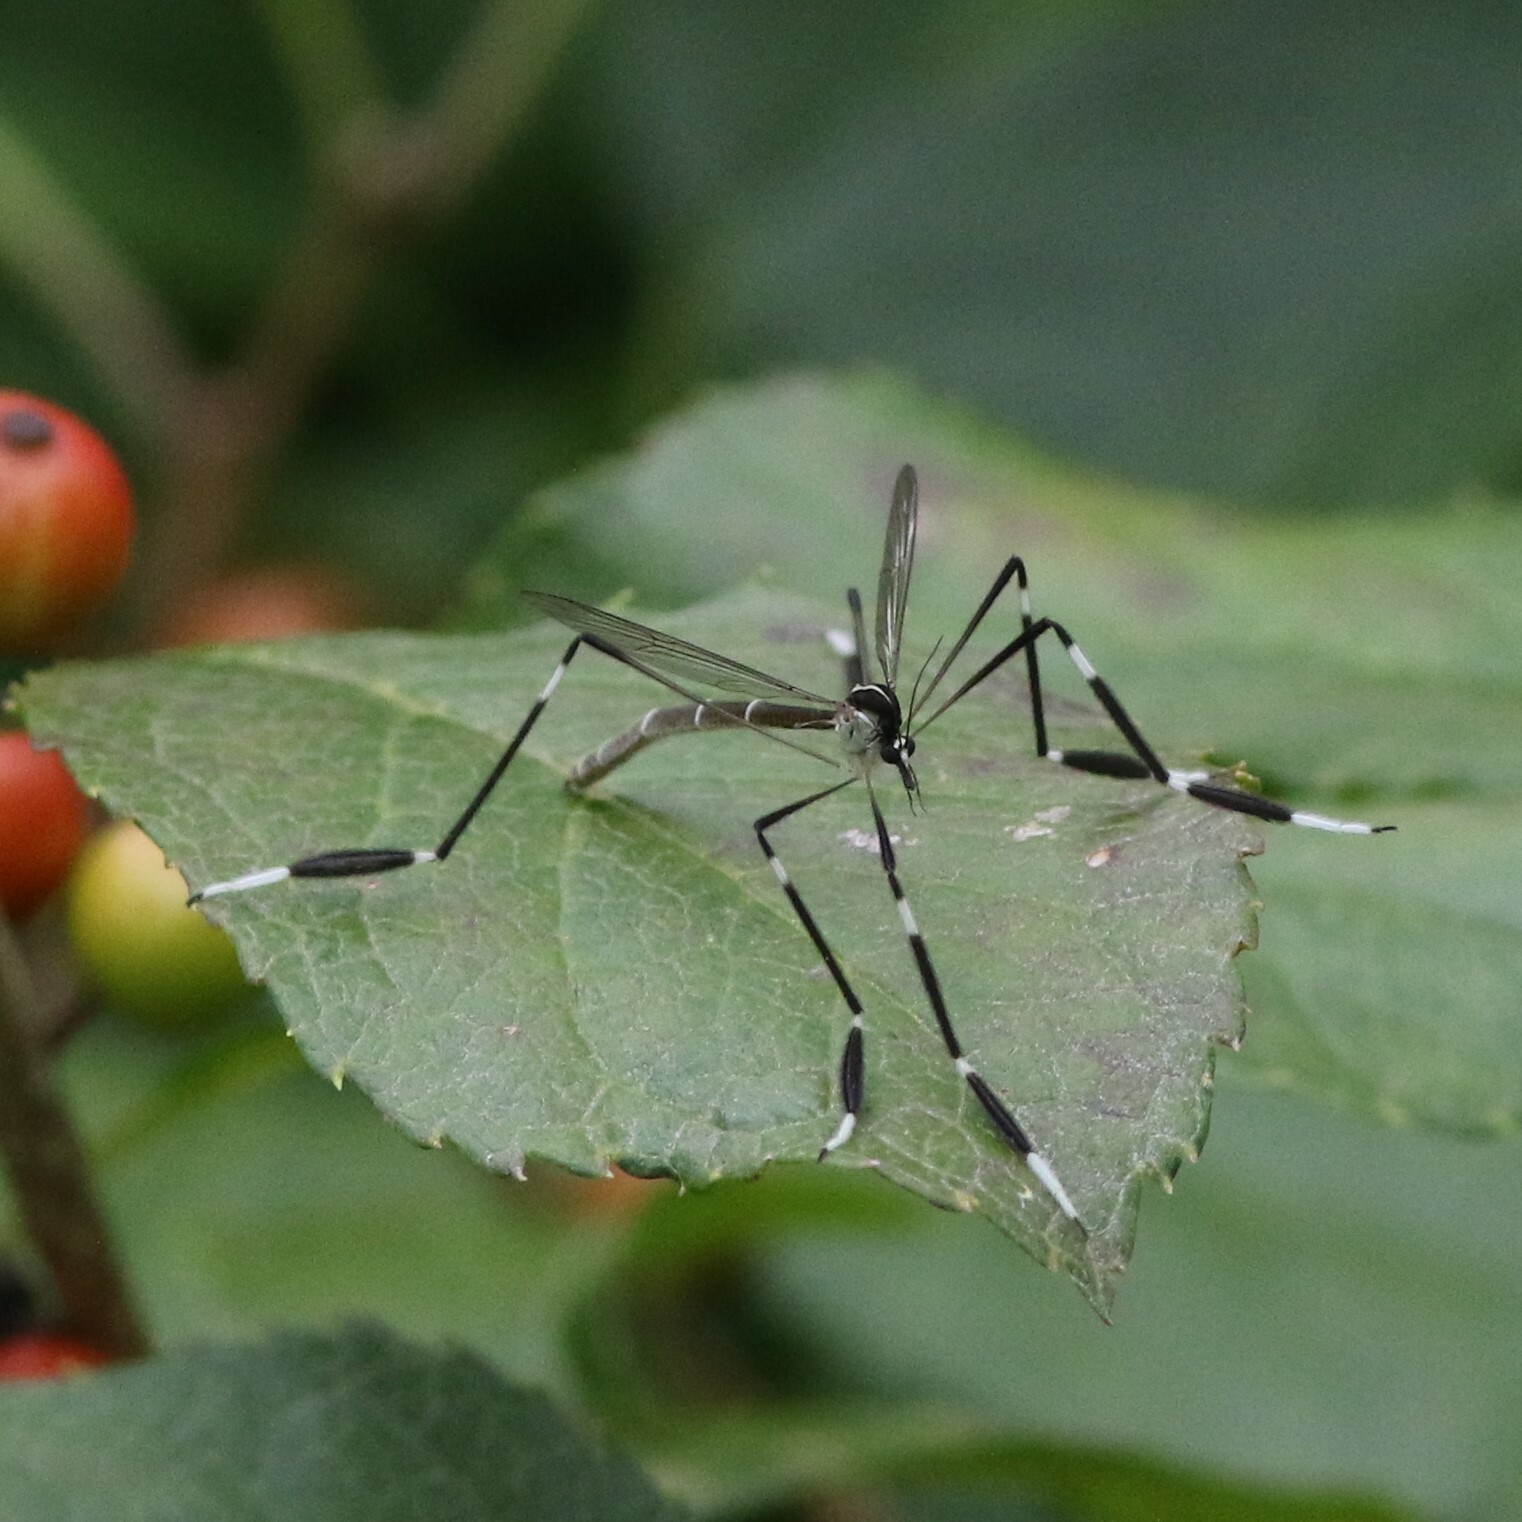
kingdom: Animalia
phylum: Arthropoda
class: Insecta
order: Diptera
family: Ptychopteridae
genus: Bittacomorpha
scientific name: Bittacomorpha clavipes
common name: Eastern phantom crane fly
